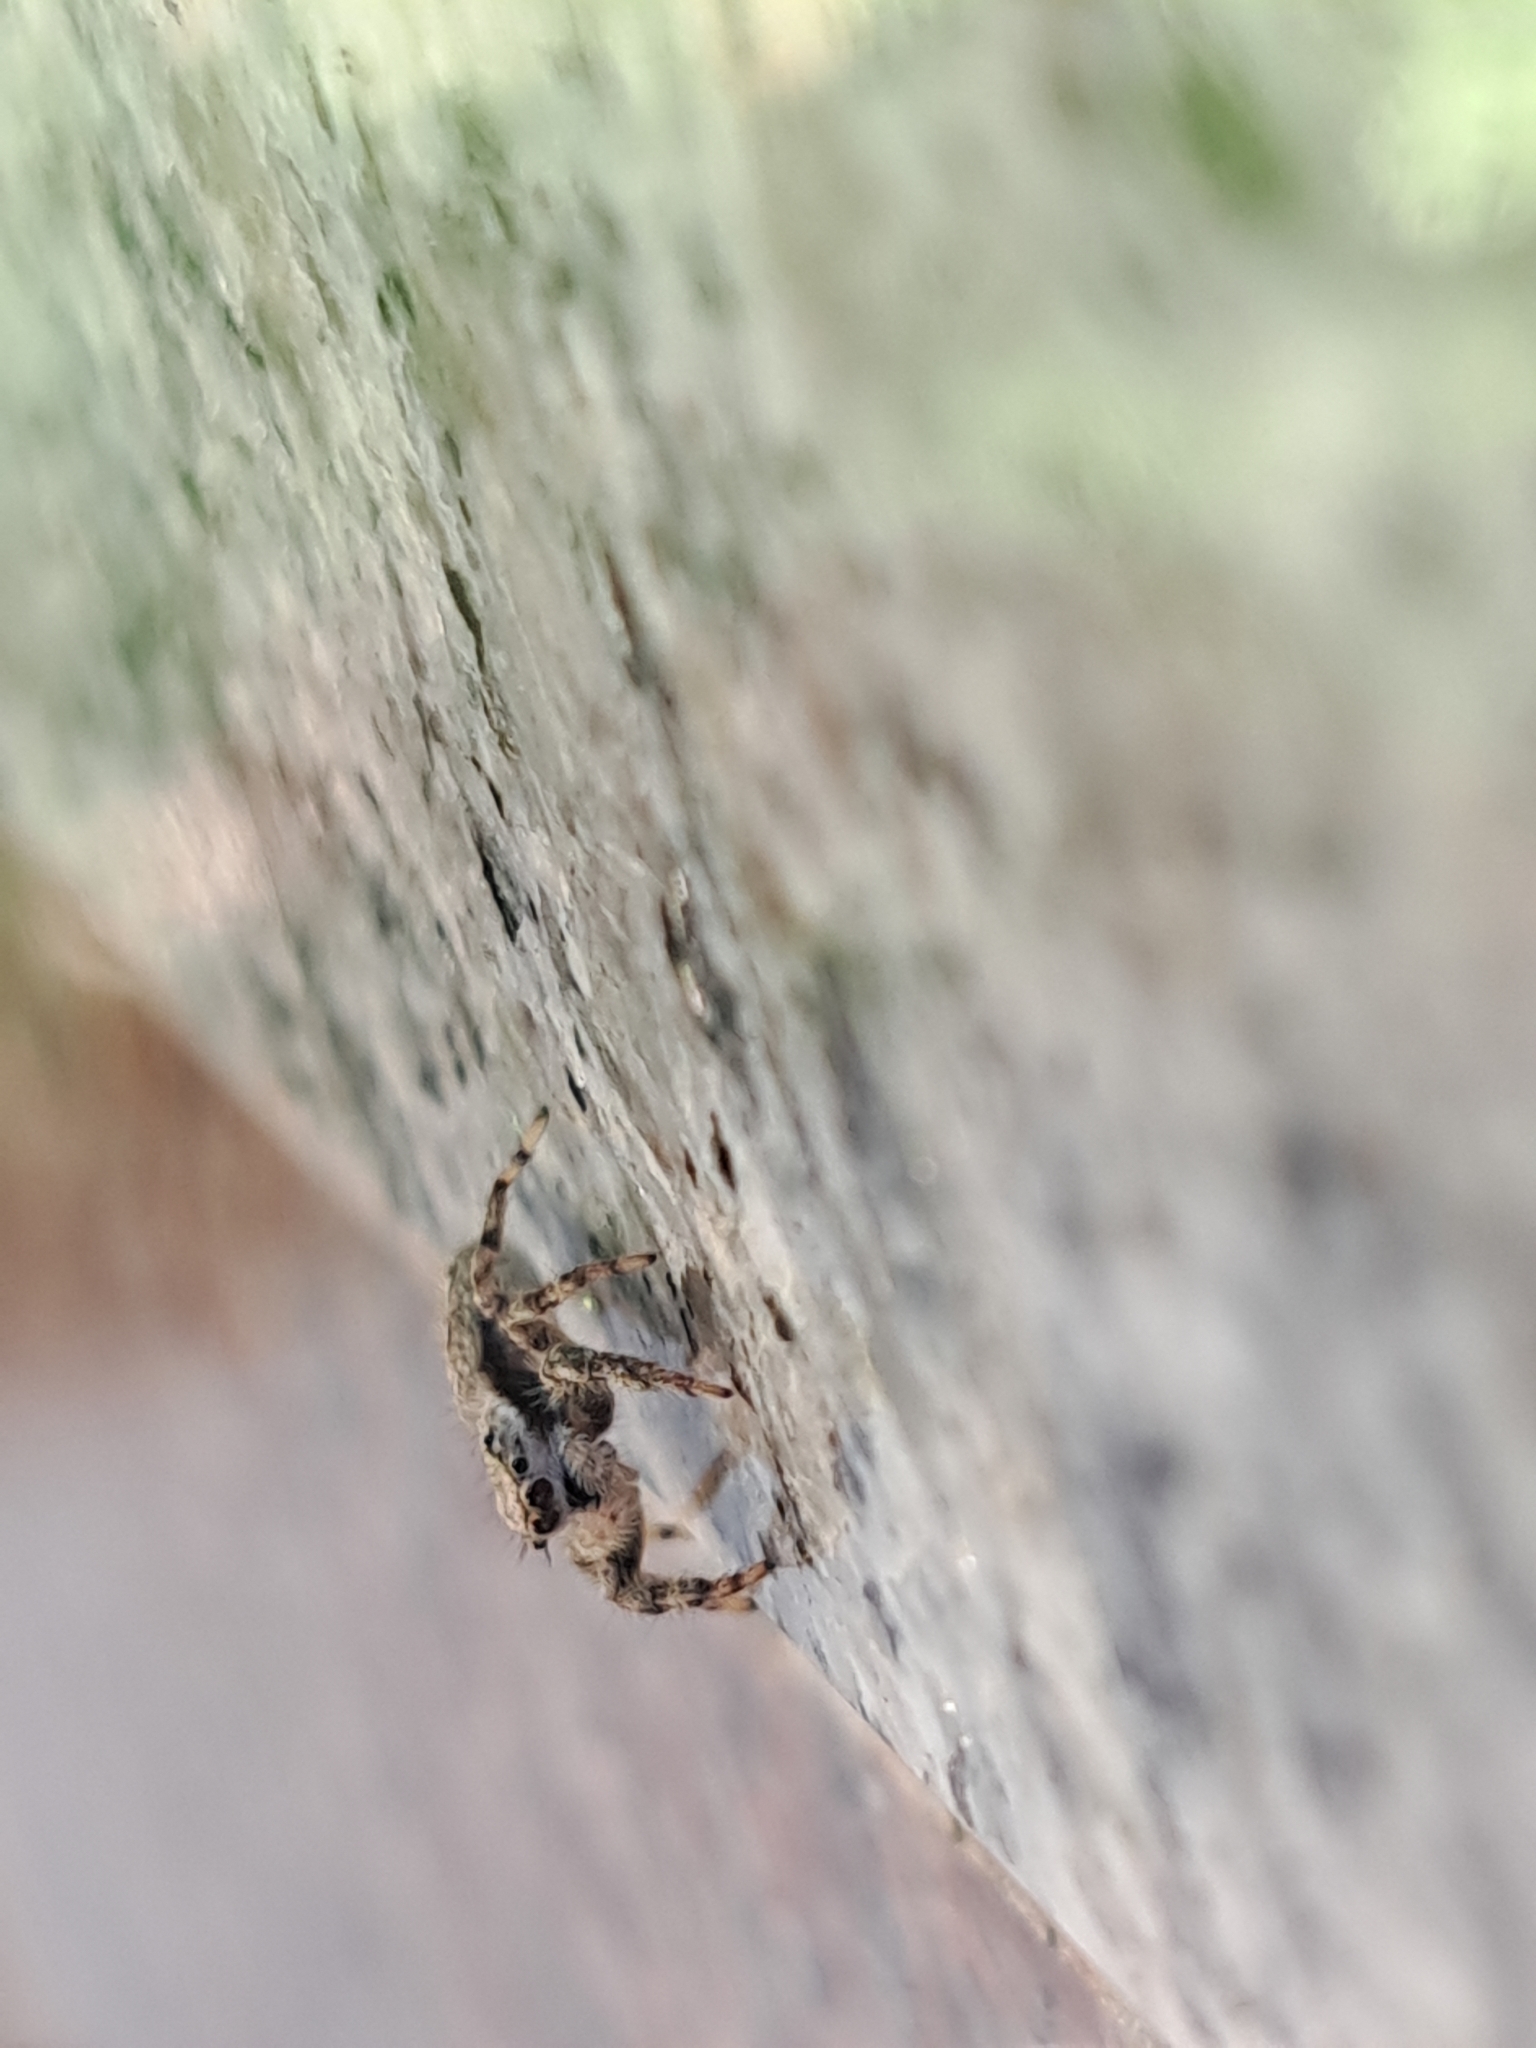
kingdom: Animalia
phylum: Arthropoda
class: Arachnida
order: Araneae
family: Salticidae
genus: Platycryptus
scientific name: Platycryptus undatus
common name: Tan jumping spider
